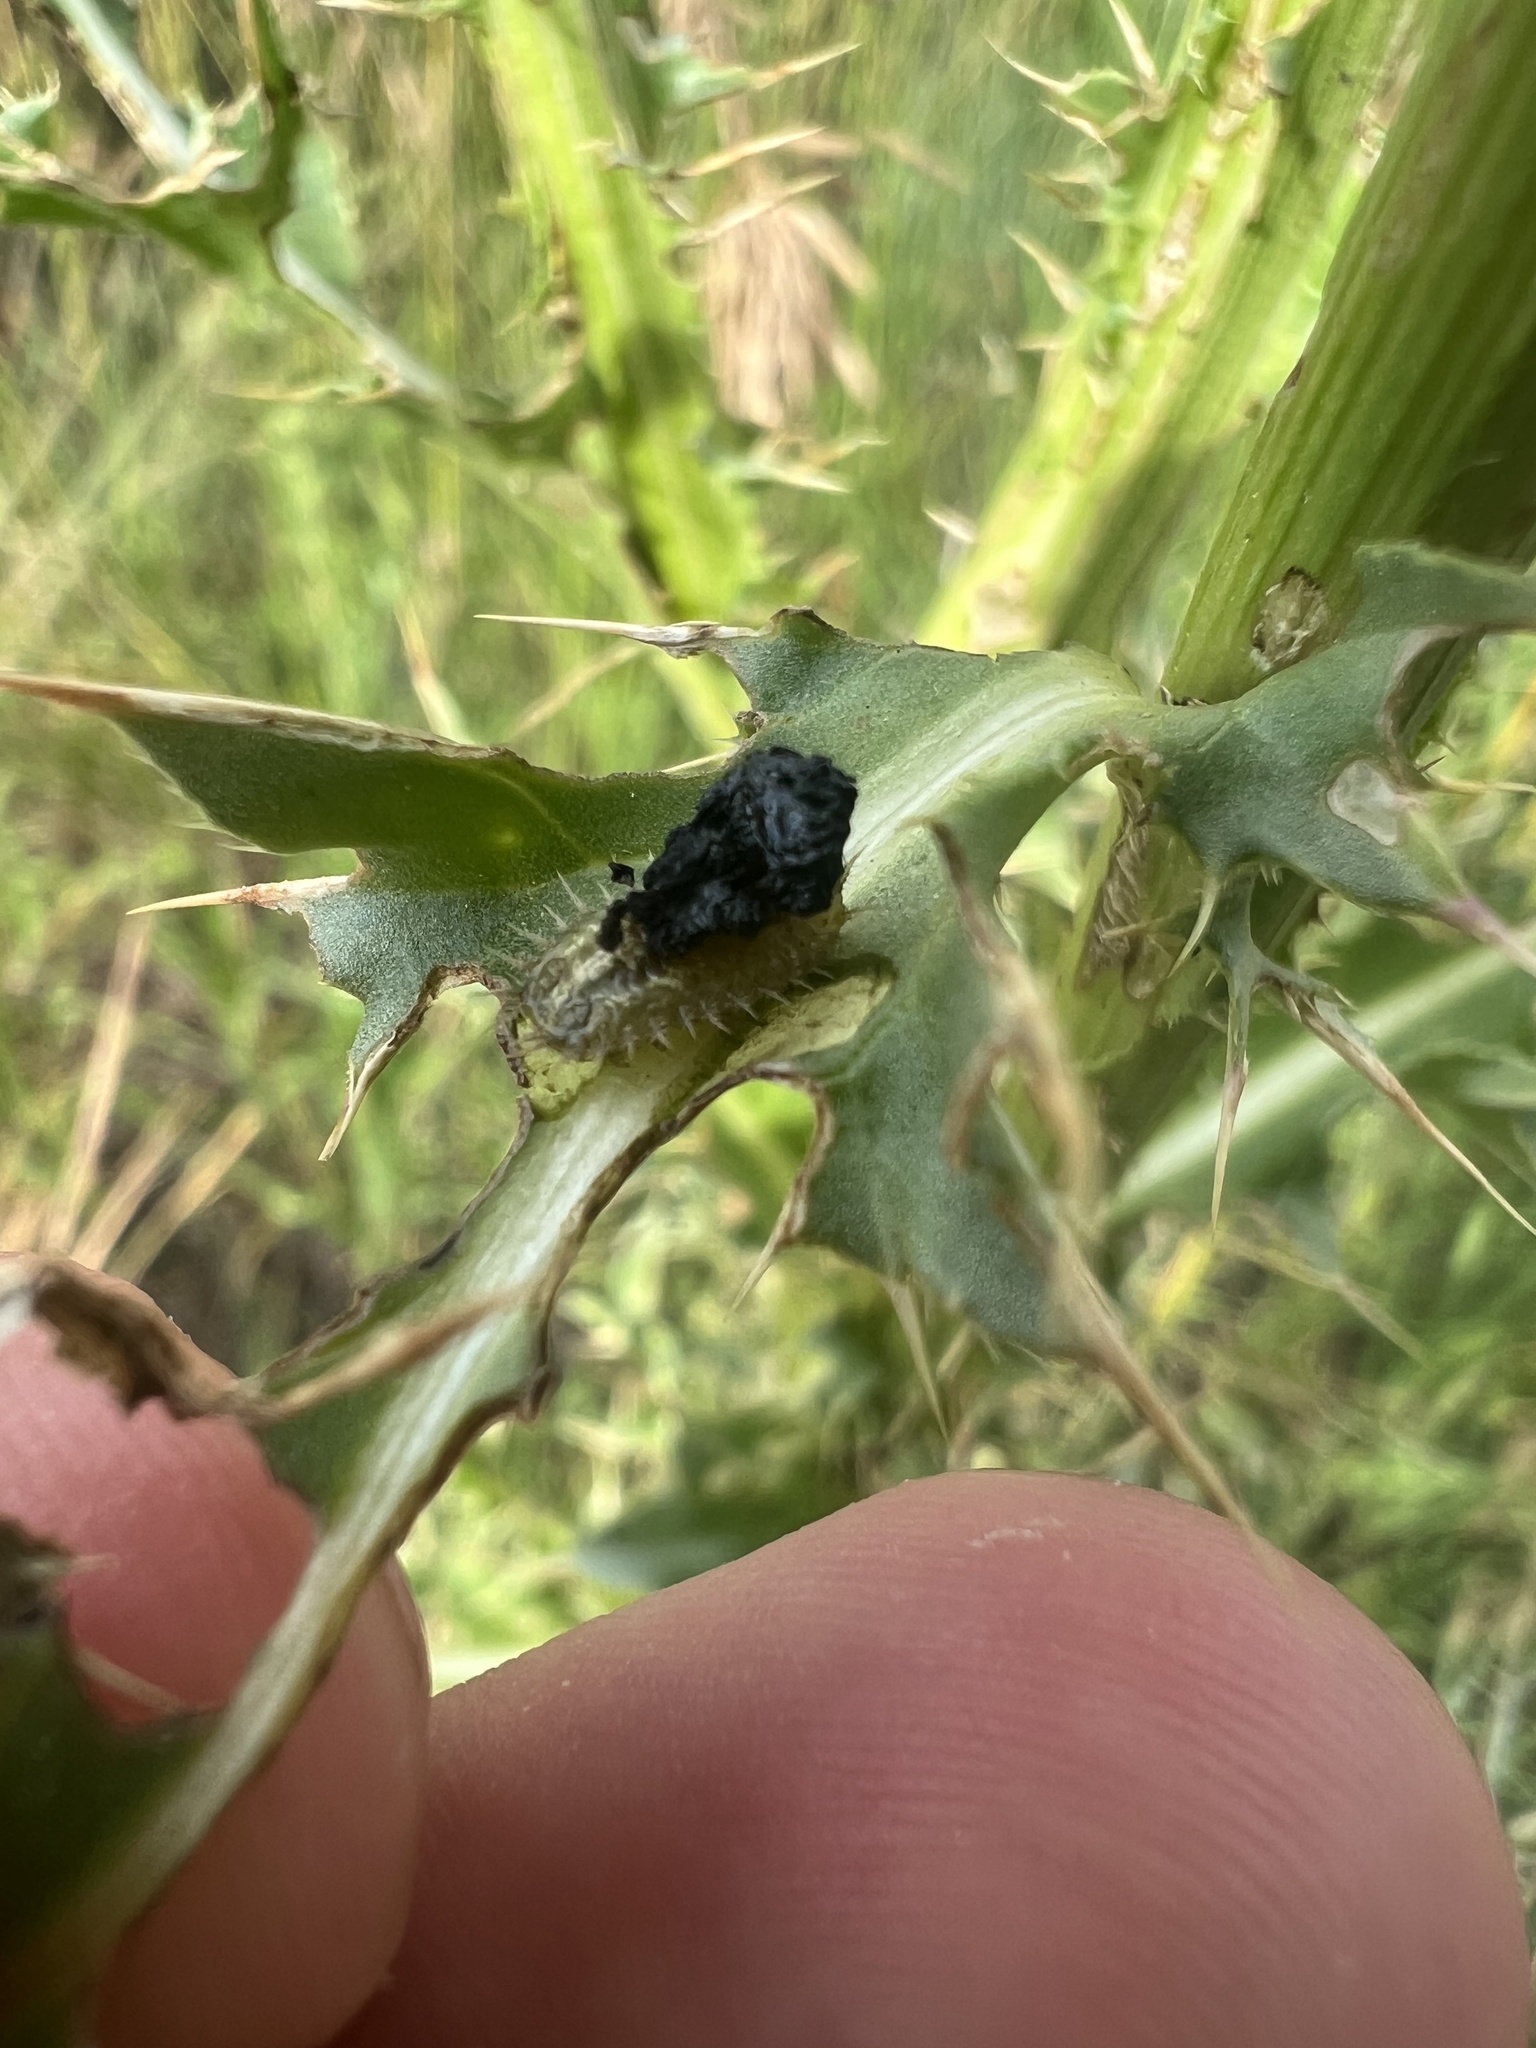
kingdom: Animalia
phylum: Arthropoda
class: Insecta
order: Coleoptera
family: Chrysomelidae
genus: Cassida
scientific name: Cassida rubiginosa
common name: Thistle tortoise beetle
